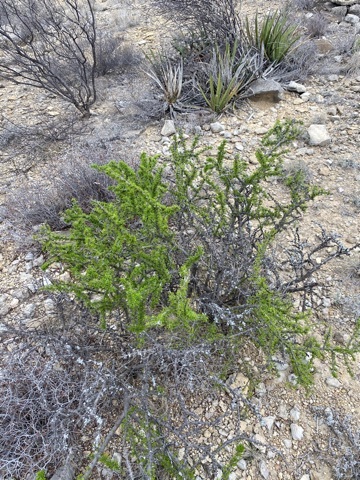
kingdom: Plantae
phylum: Tracheophyta
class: Magnoliopsida
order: Lamiales
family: Oleaceae
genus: Forestiera
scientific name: Forestiera angustifolia
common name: Elbowbush
